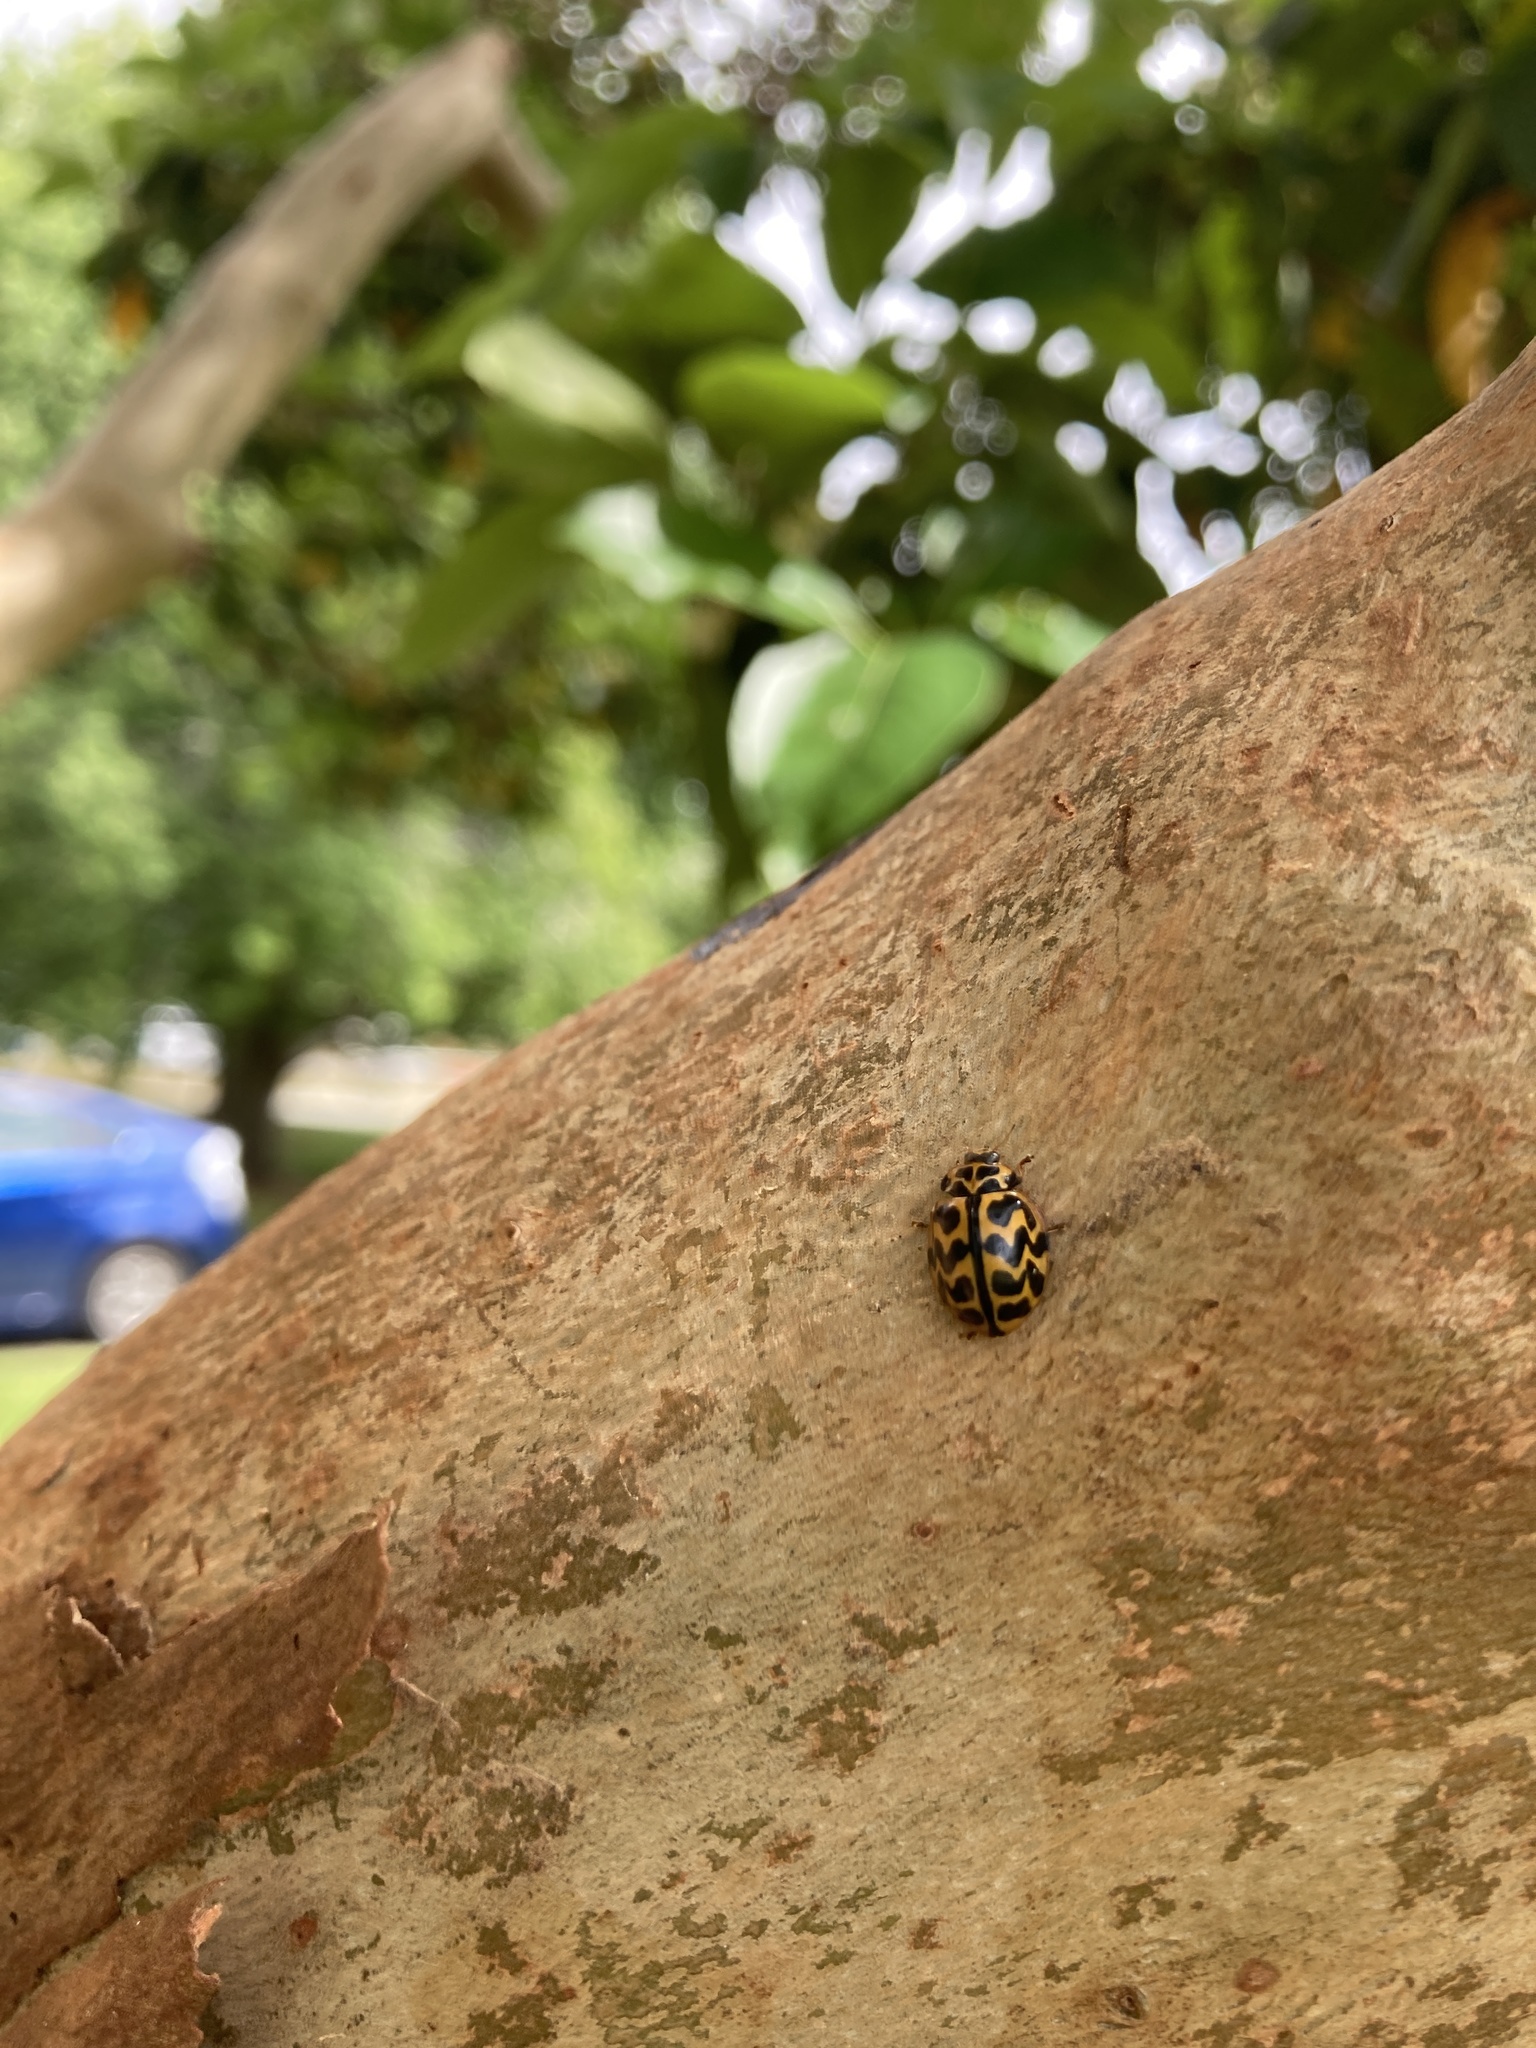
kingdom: Animalia
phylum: Arthropoda
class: Insecta
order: Coleoptera
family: Coccinellidae
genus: Cleobora
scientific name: Cleobora
